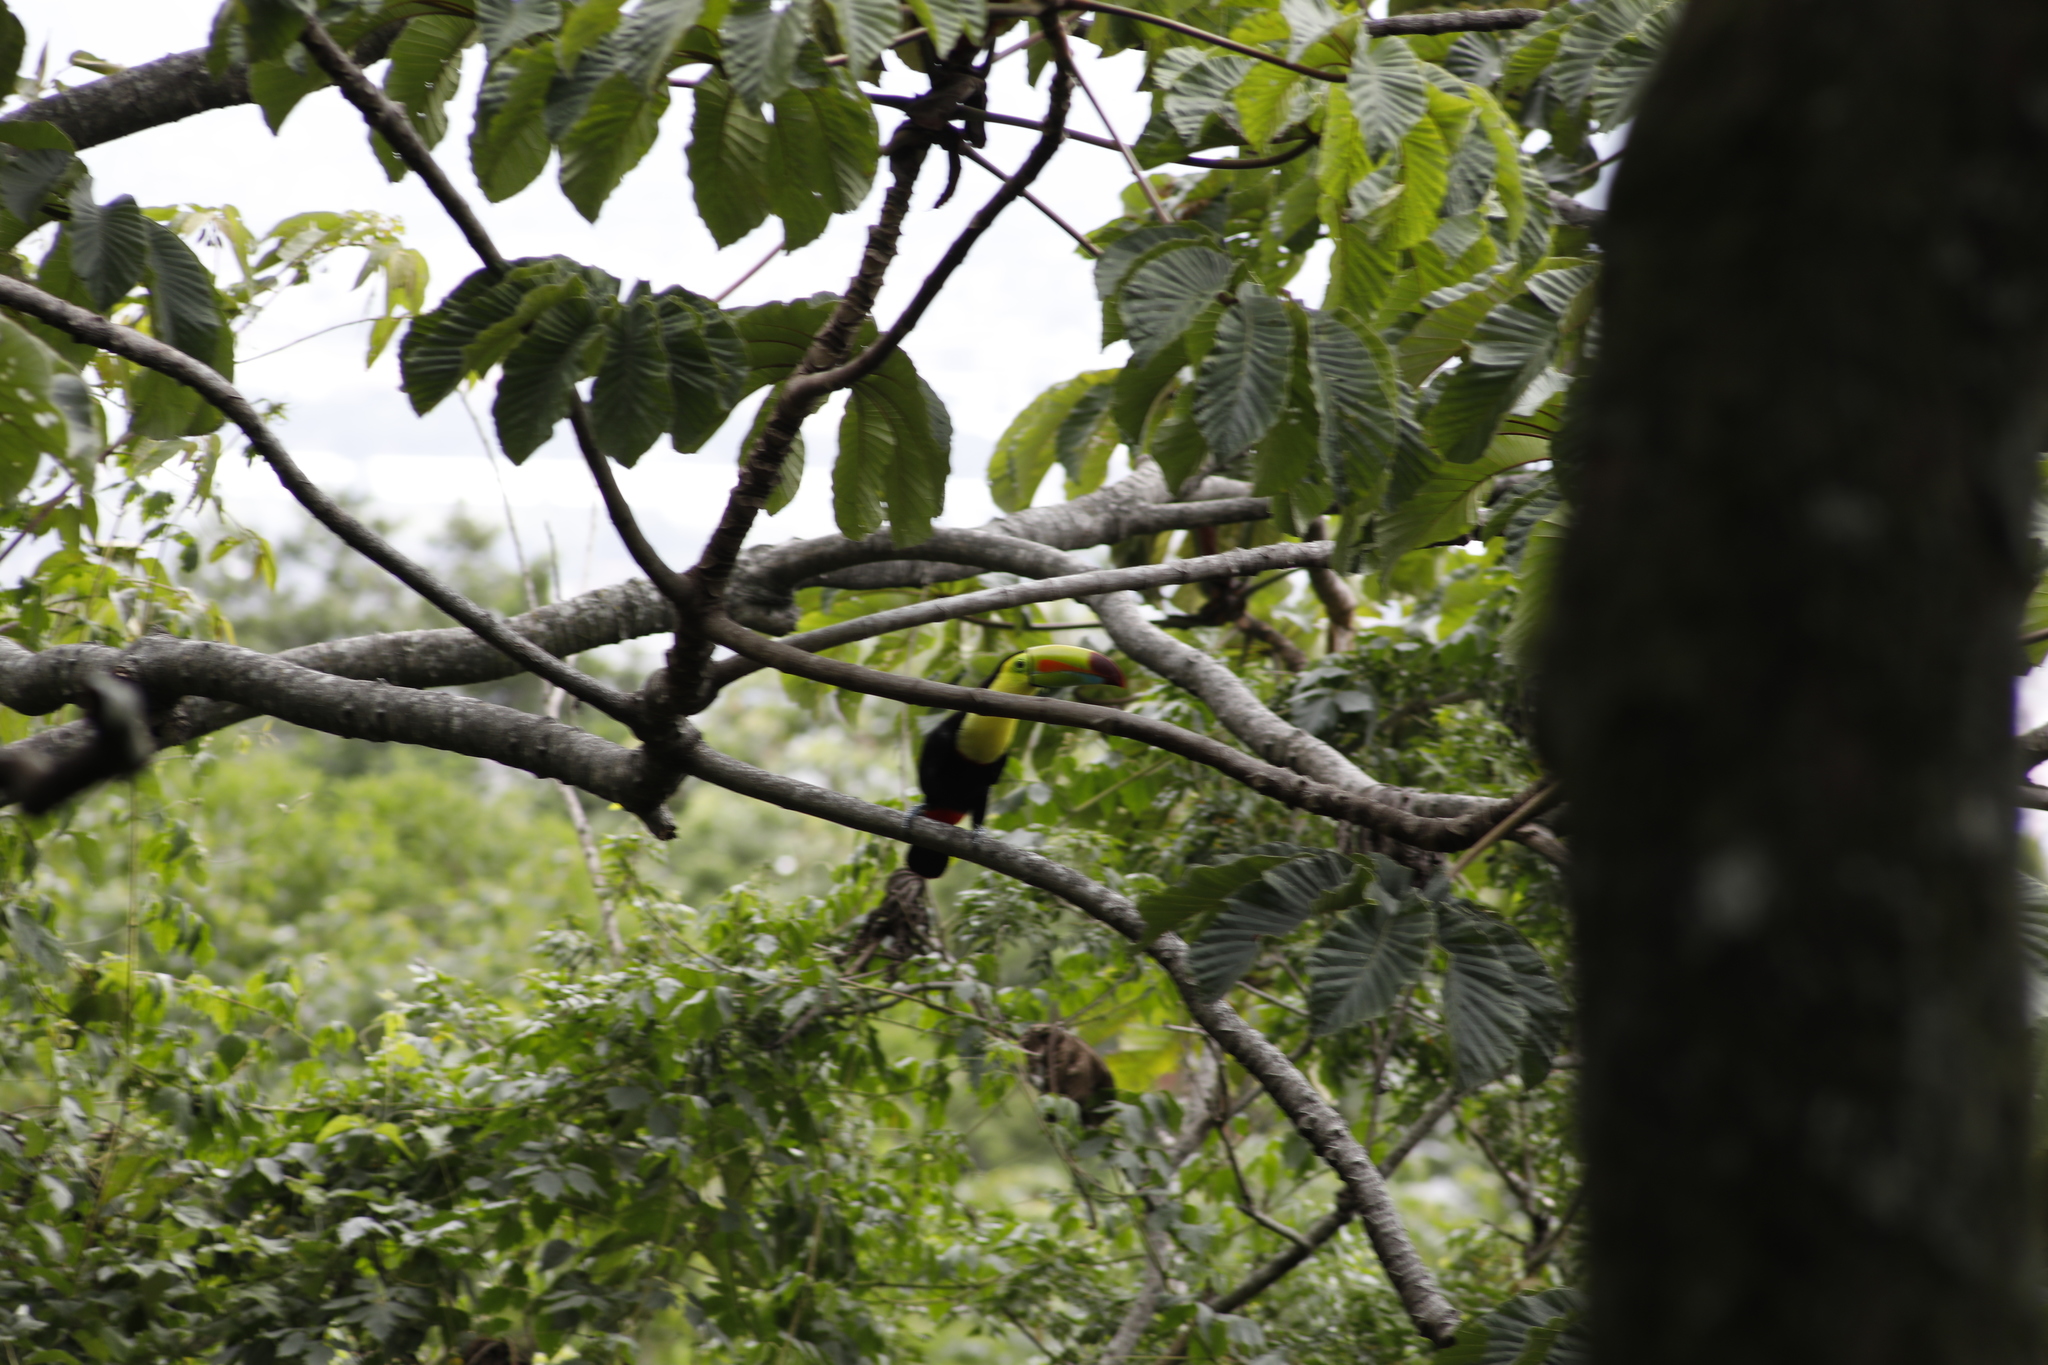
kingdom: Animalia
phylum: Chordata
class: Aves
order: Piciformes
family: Ramphastidae
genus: Ramphastos
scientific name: Ramphastos sulfuratus
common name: Keel-billed toucan
